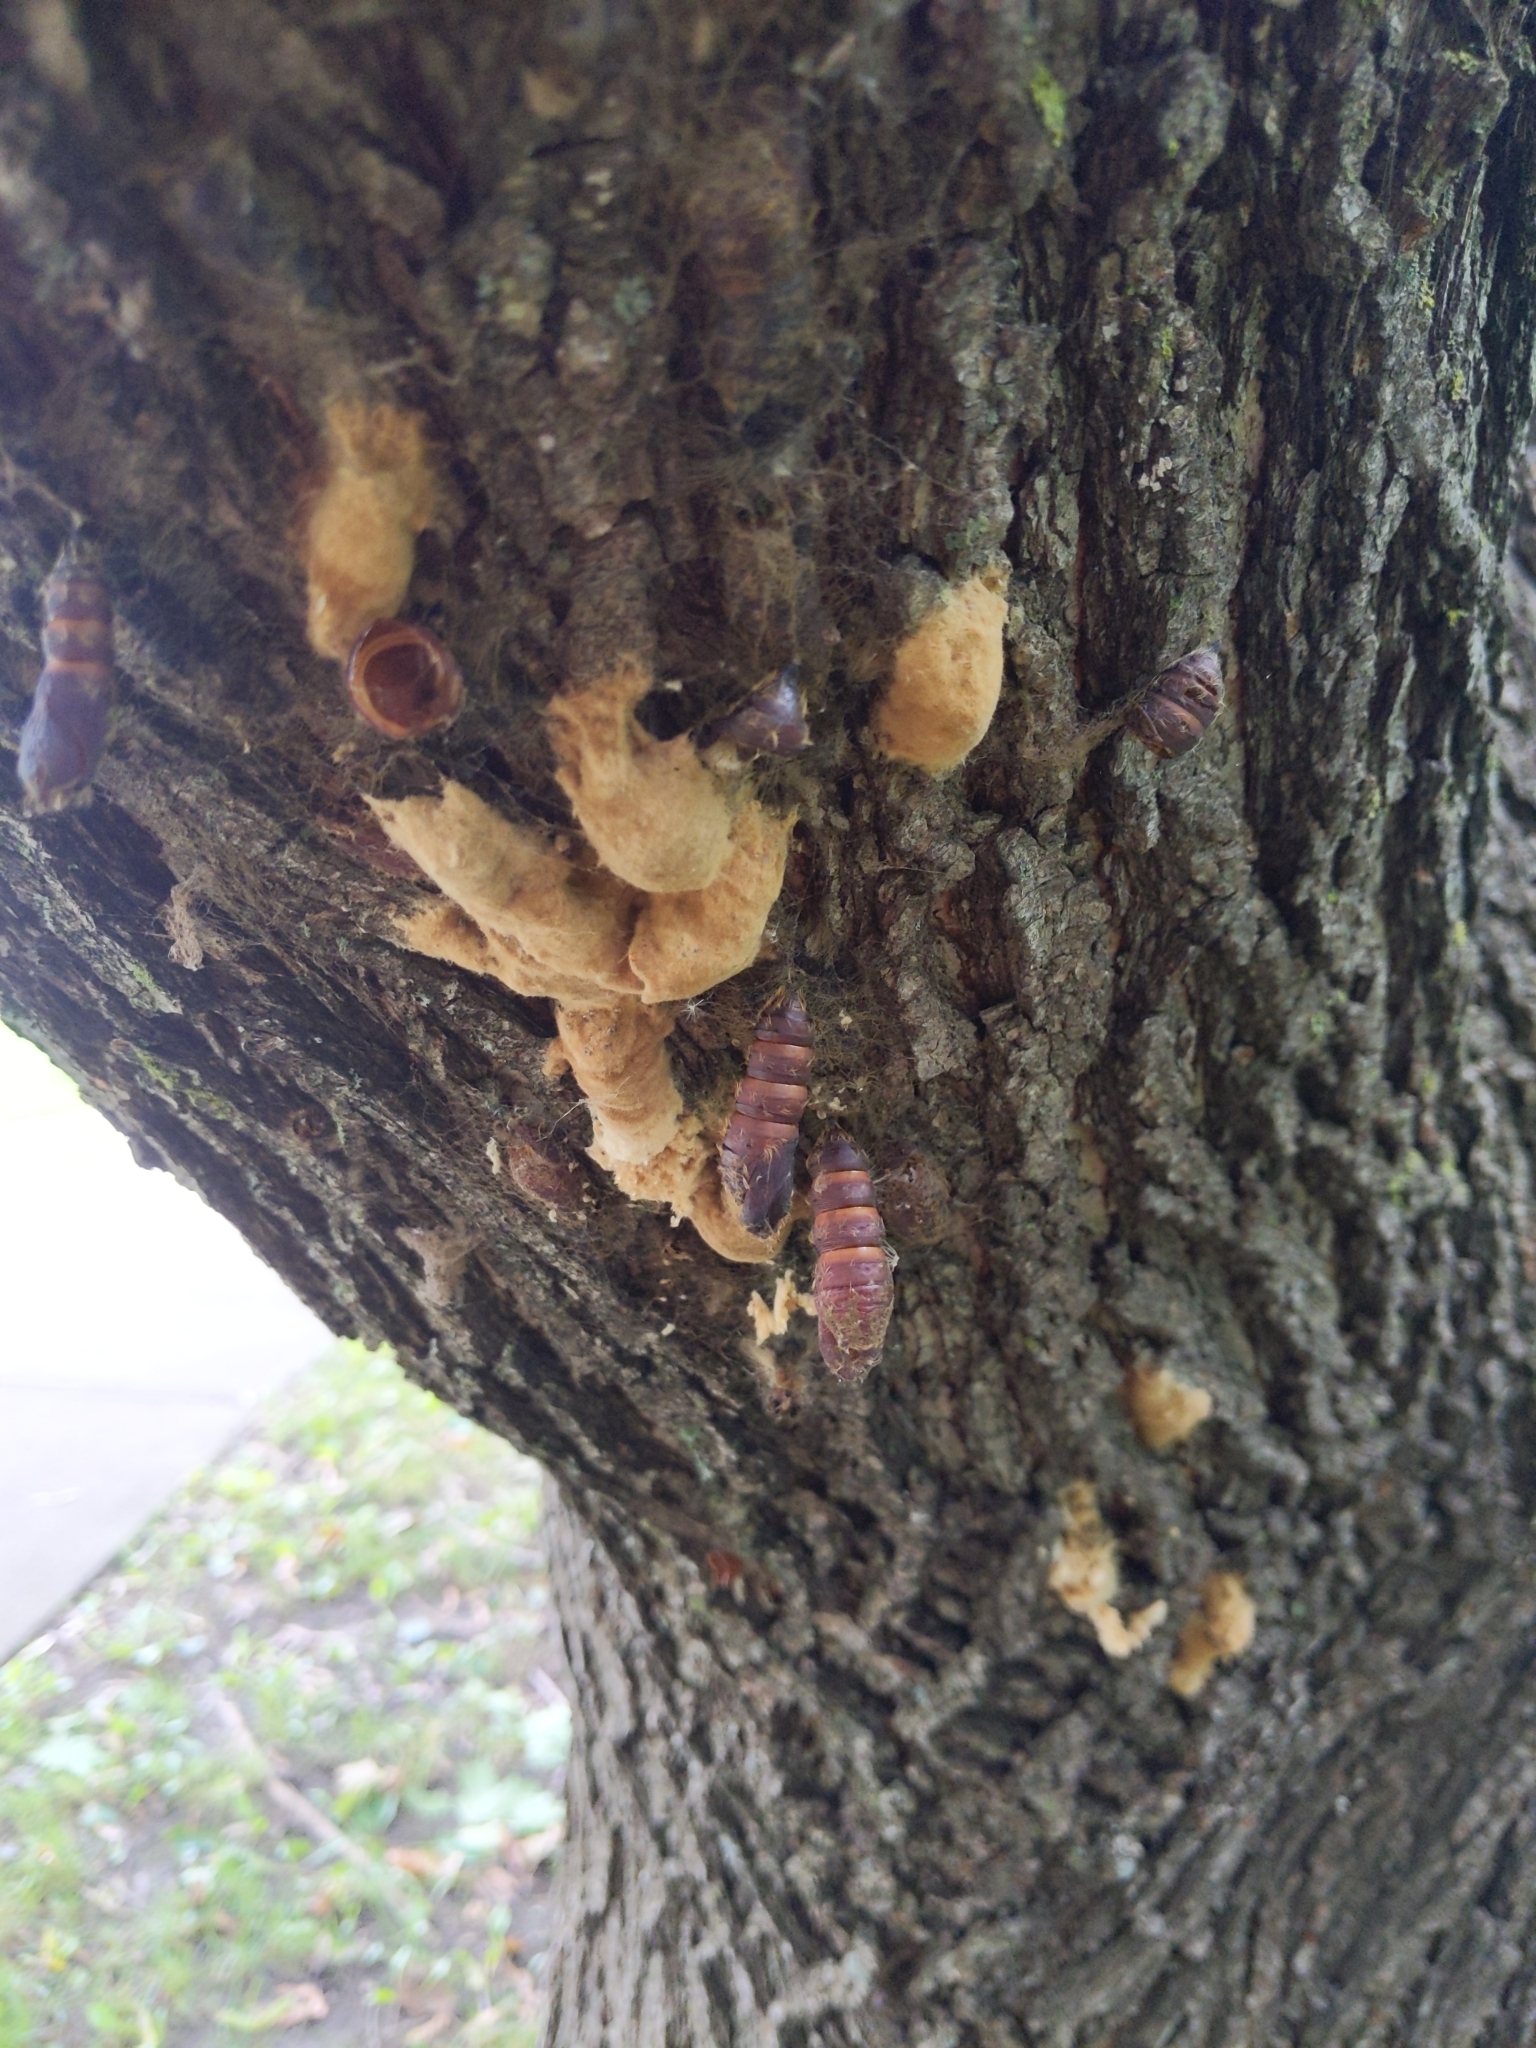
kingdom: Animalia
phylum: Arthropoda
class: Insecta
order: Lepidoptera
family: Erebidae
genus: Lymantria
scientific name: Lymantria dispar
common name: Gypsy moth
